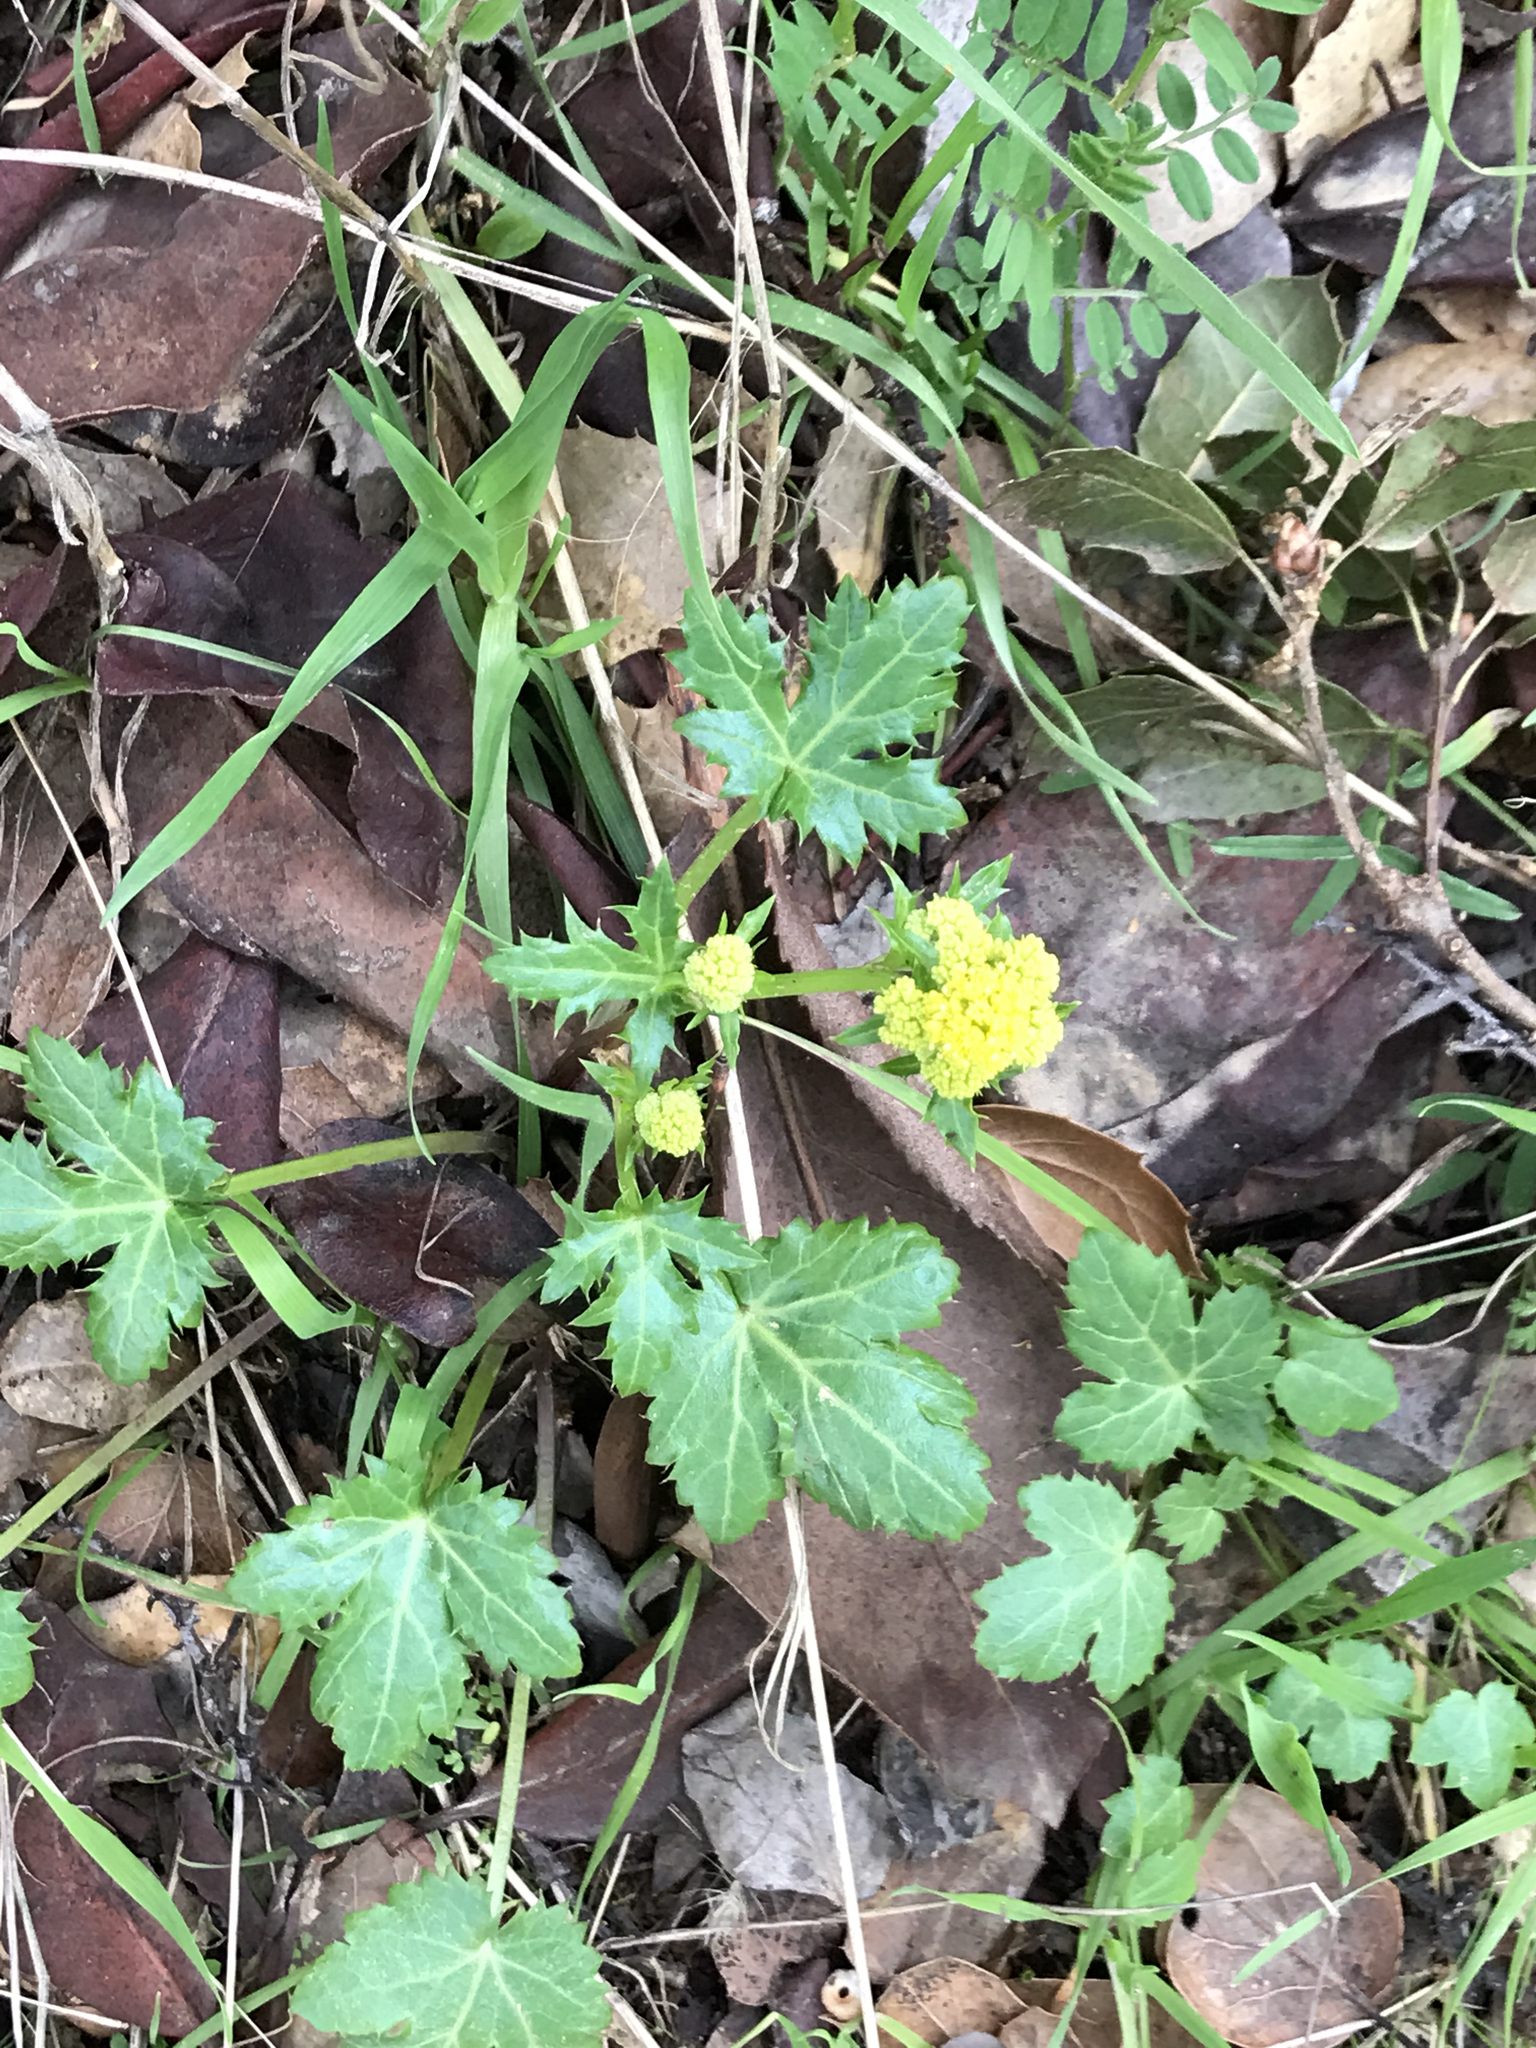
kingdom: Plantae
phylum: Tracheophyta
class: Magnoliopsida
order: Apiales
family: Apiaceae
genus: Sanicula
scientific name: Sanicula crassicaulis
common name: Western snakeroot
